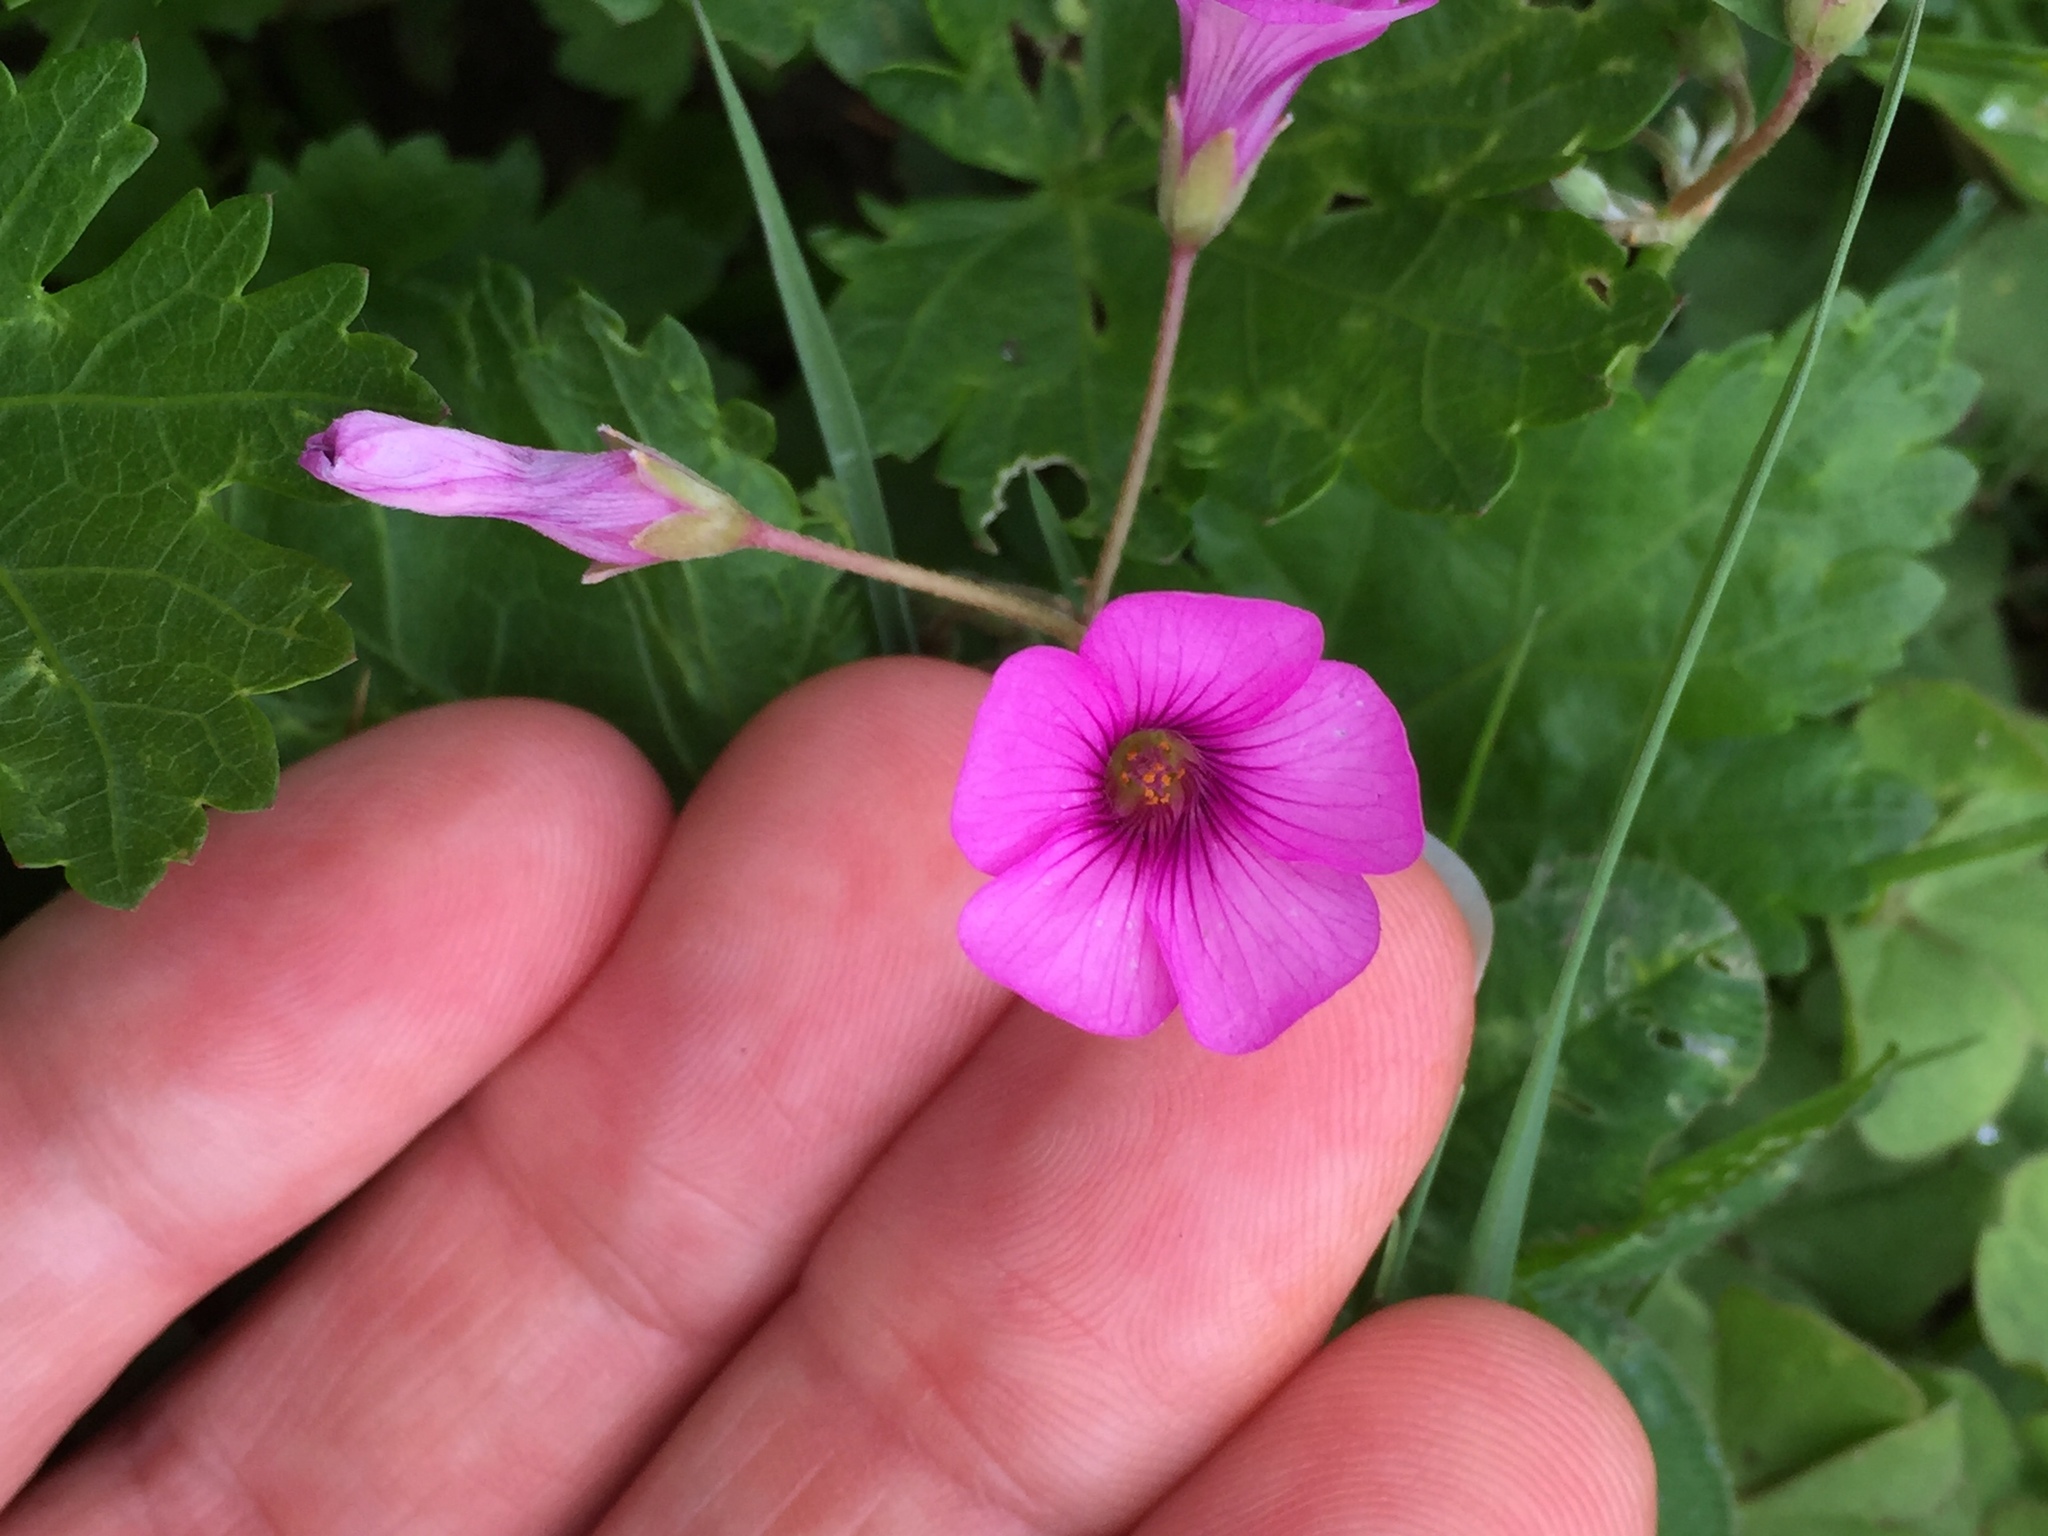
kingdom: Plantae
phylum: Tracheophyta
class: Magnoliopsida
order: Oxalidales
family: Oxalidaceae
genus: Oxalis
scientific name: Oxalis articulata
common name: Pink-sorrel
